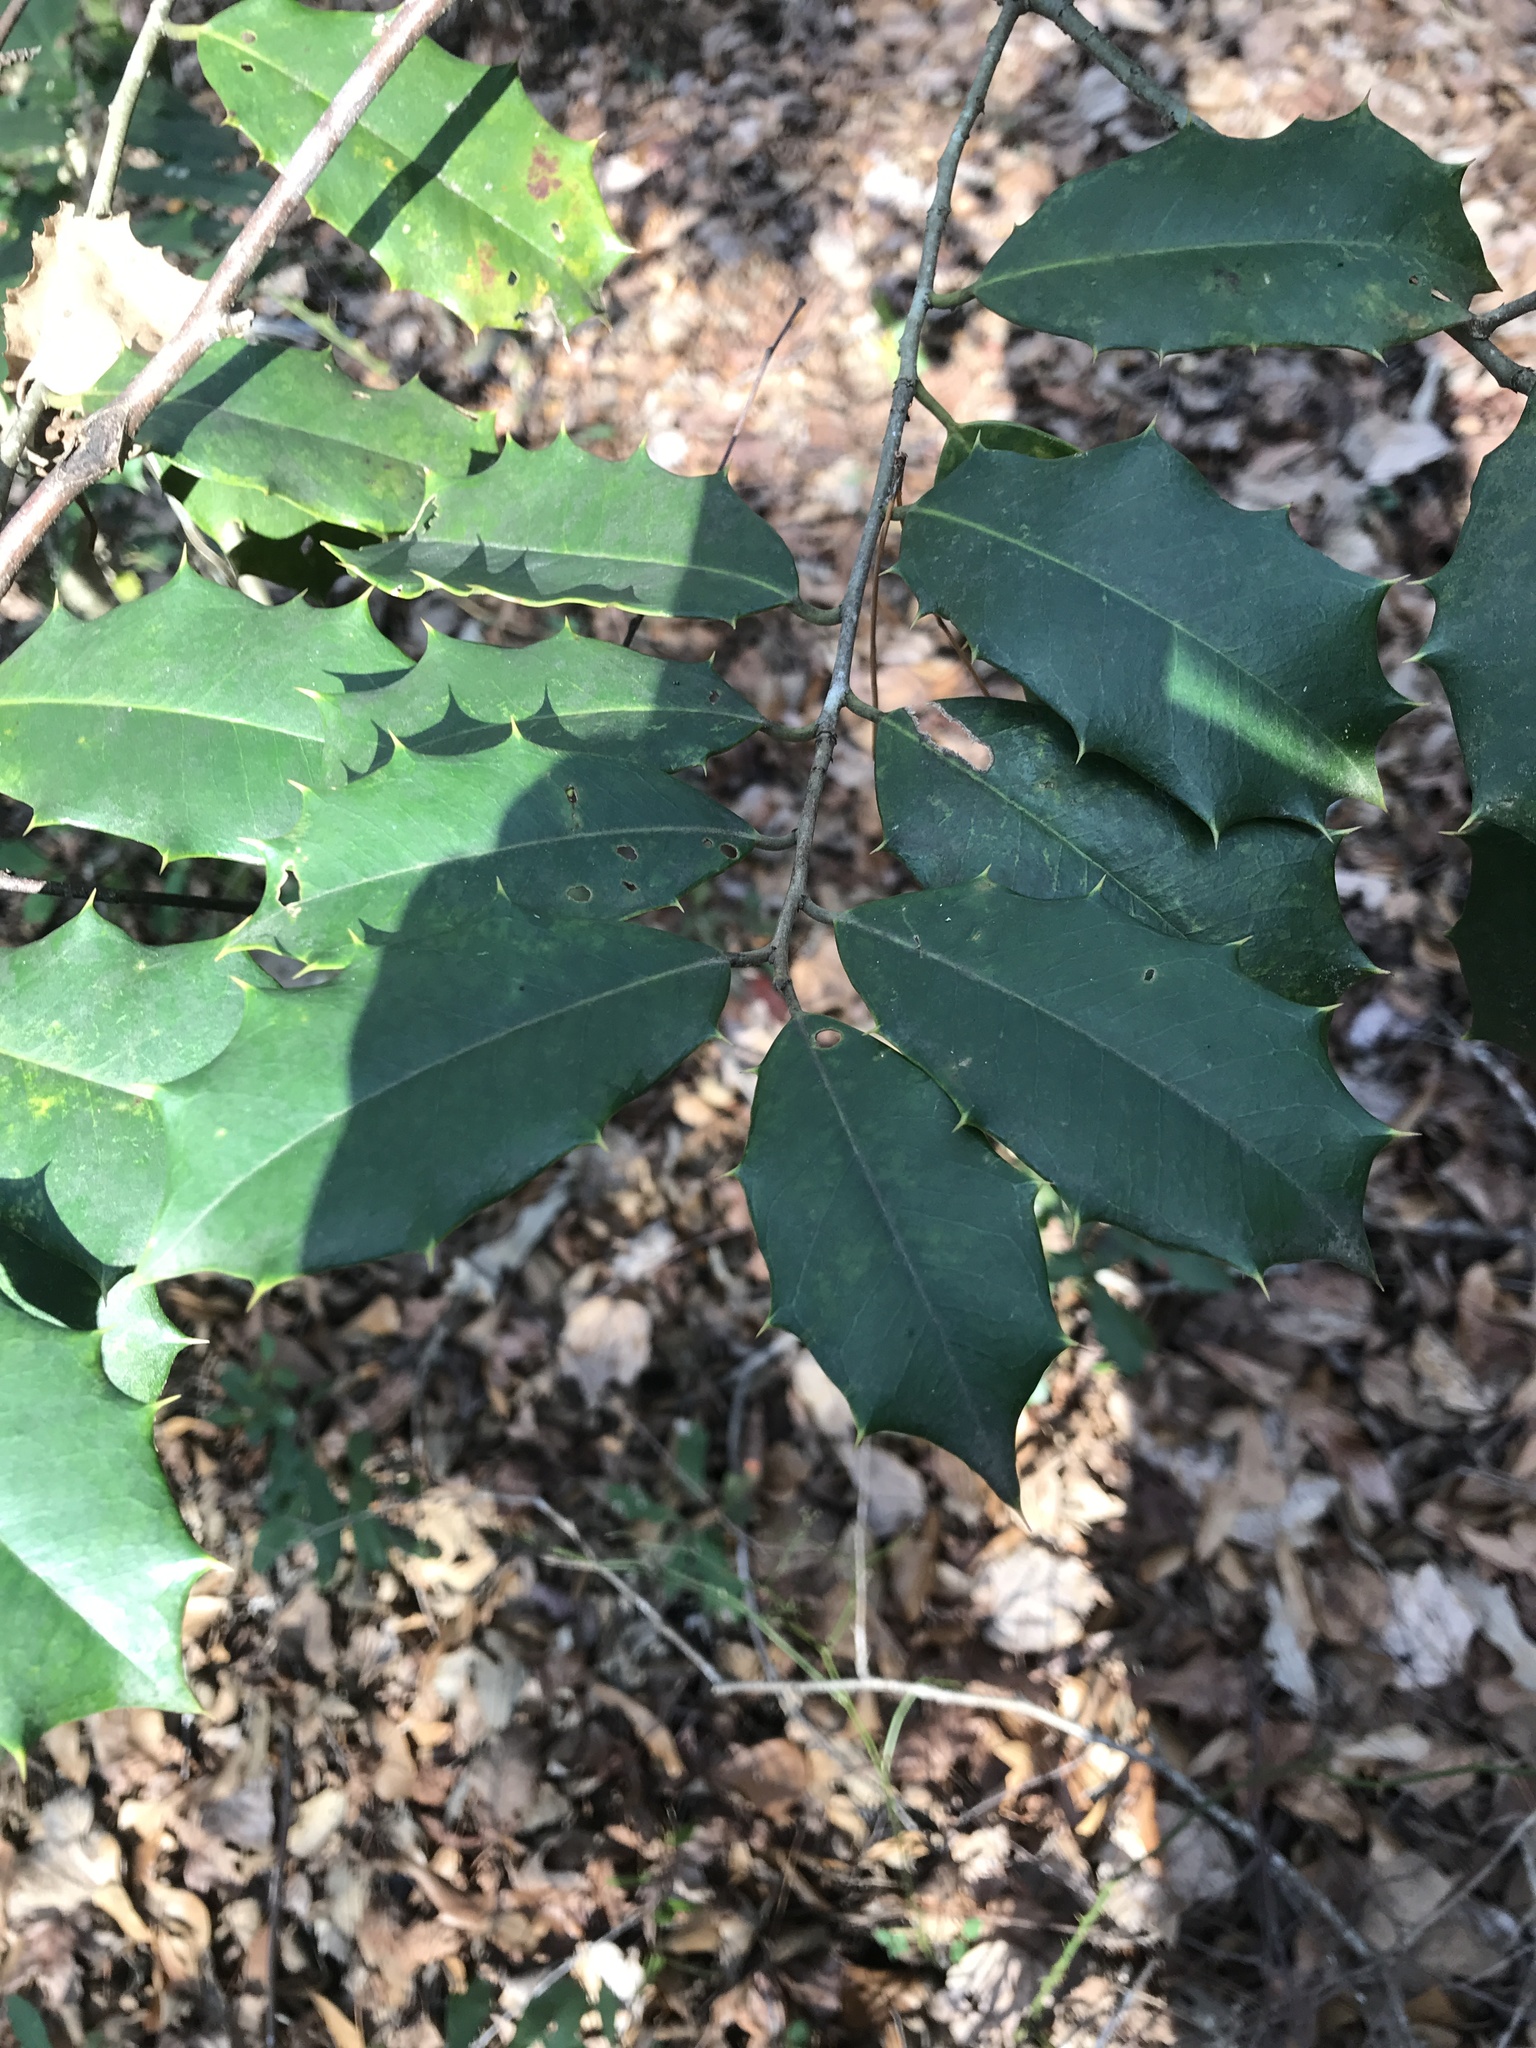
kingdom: Plantae
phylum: Tracheophyta
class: Magnoliopsida
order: Aquifoliales
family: Aquifoliaceae
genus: Ilex
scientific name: Ilex opaca
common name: American holly
